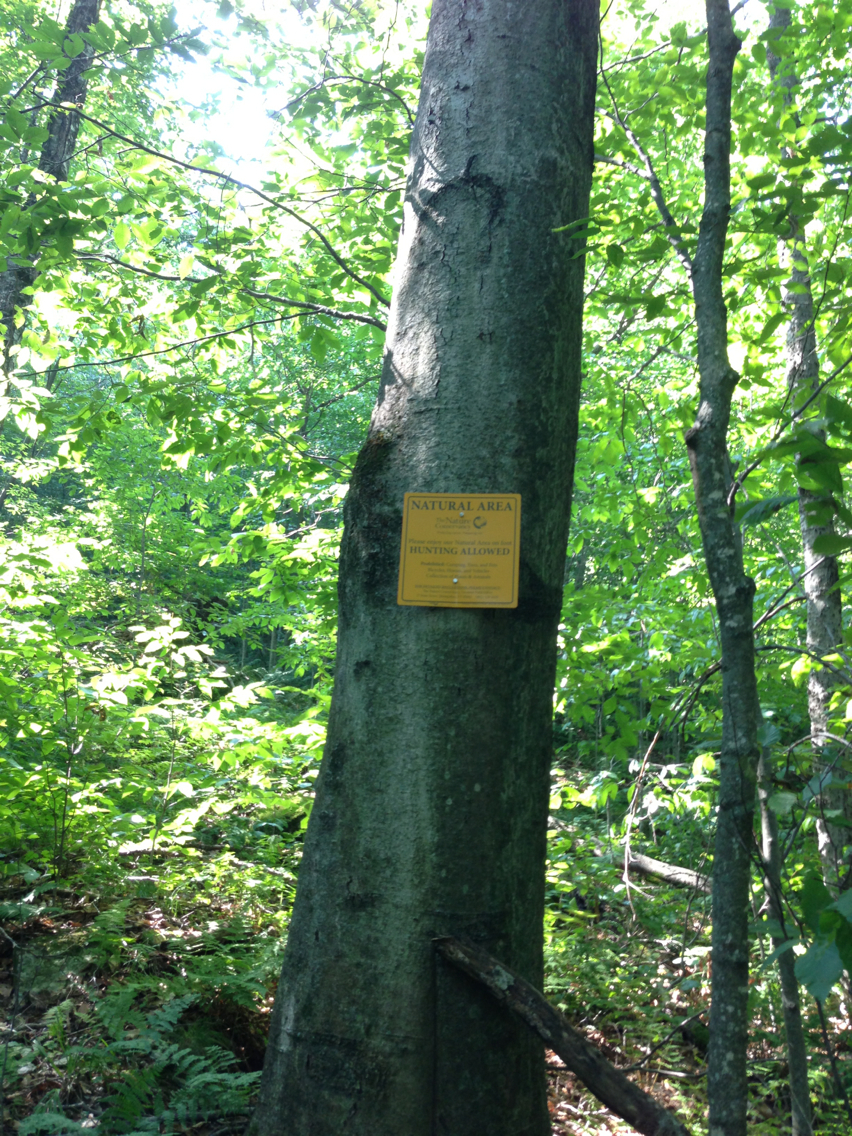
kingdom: Plantae
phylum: Tracheophyta
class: Magnoliopsida
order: Fagales
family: Fagaceae
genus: Fagus
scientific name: Fagus grandifolia
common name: American beech
